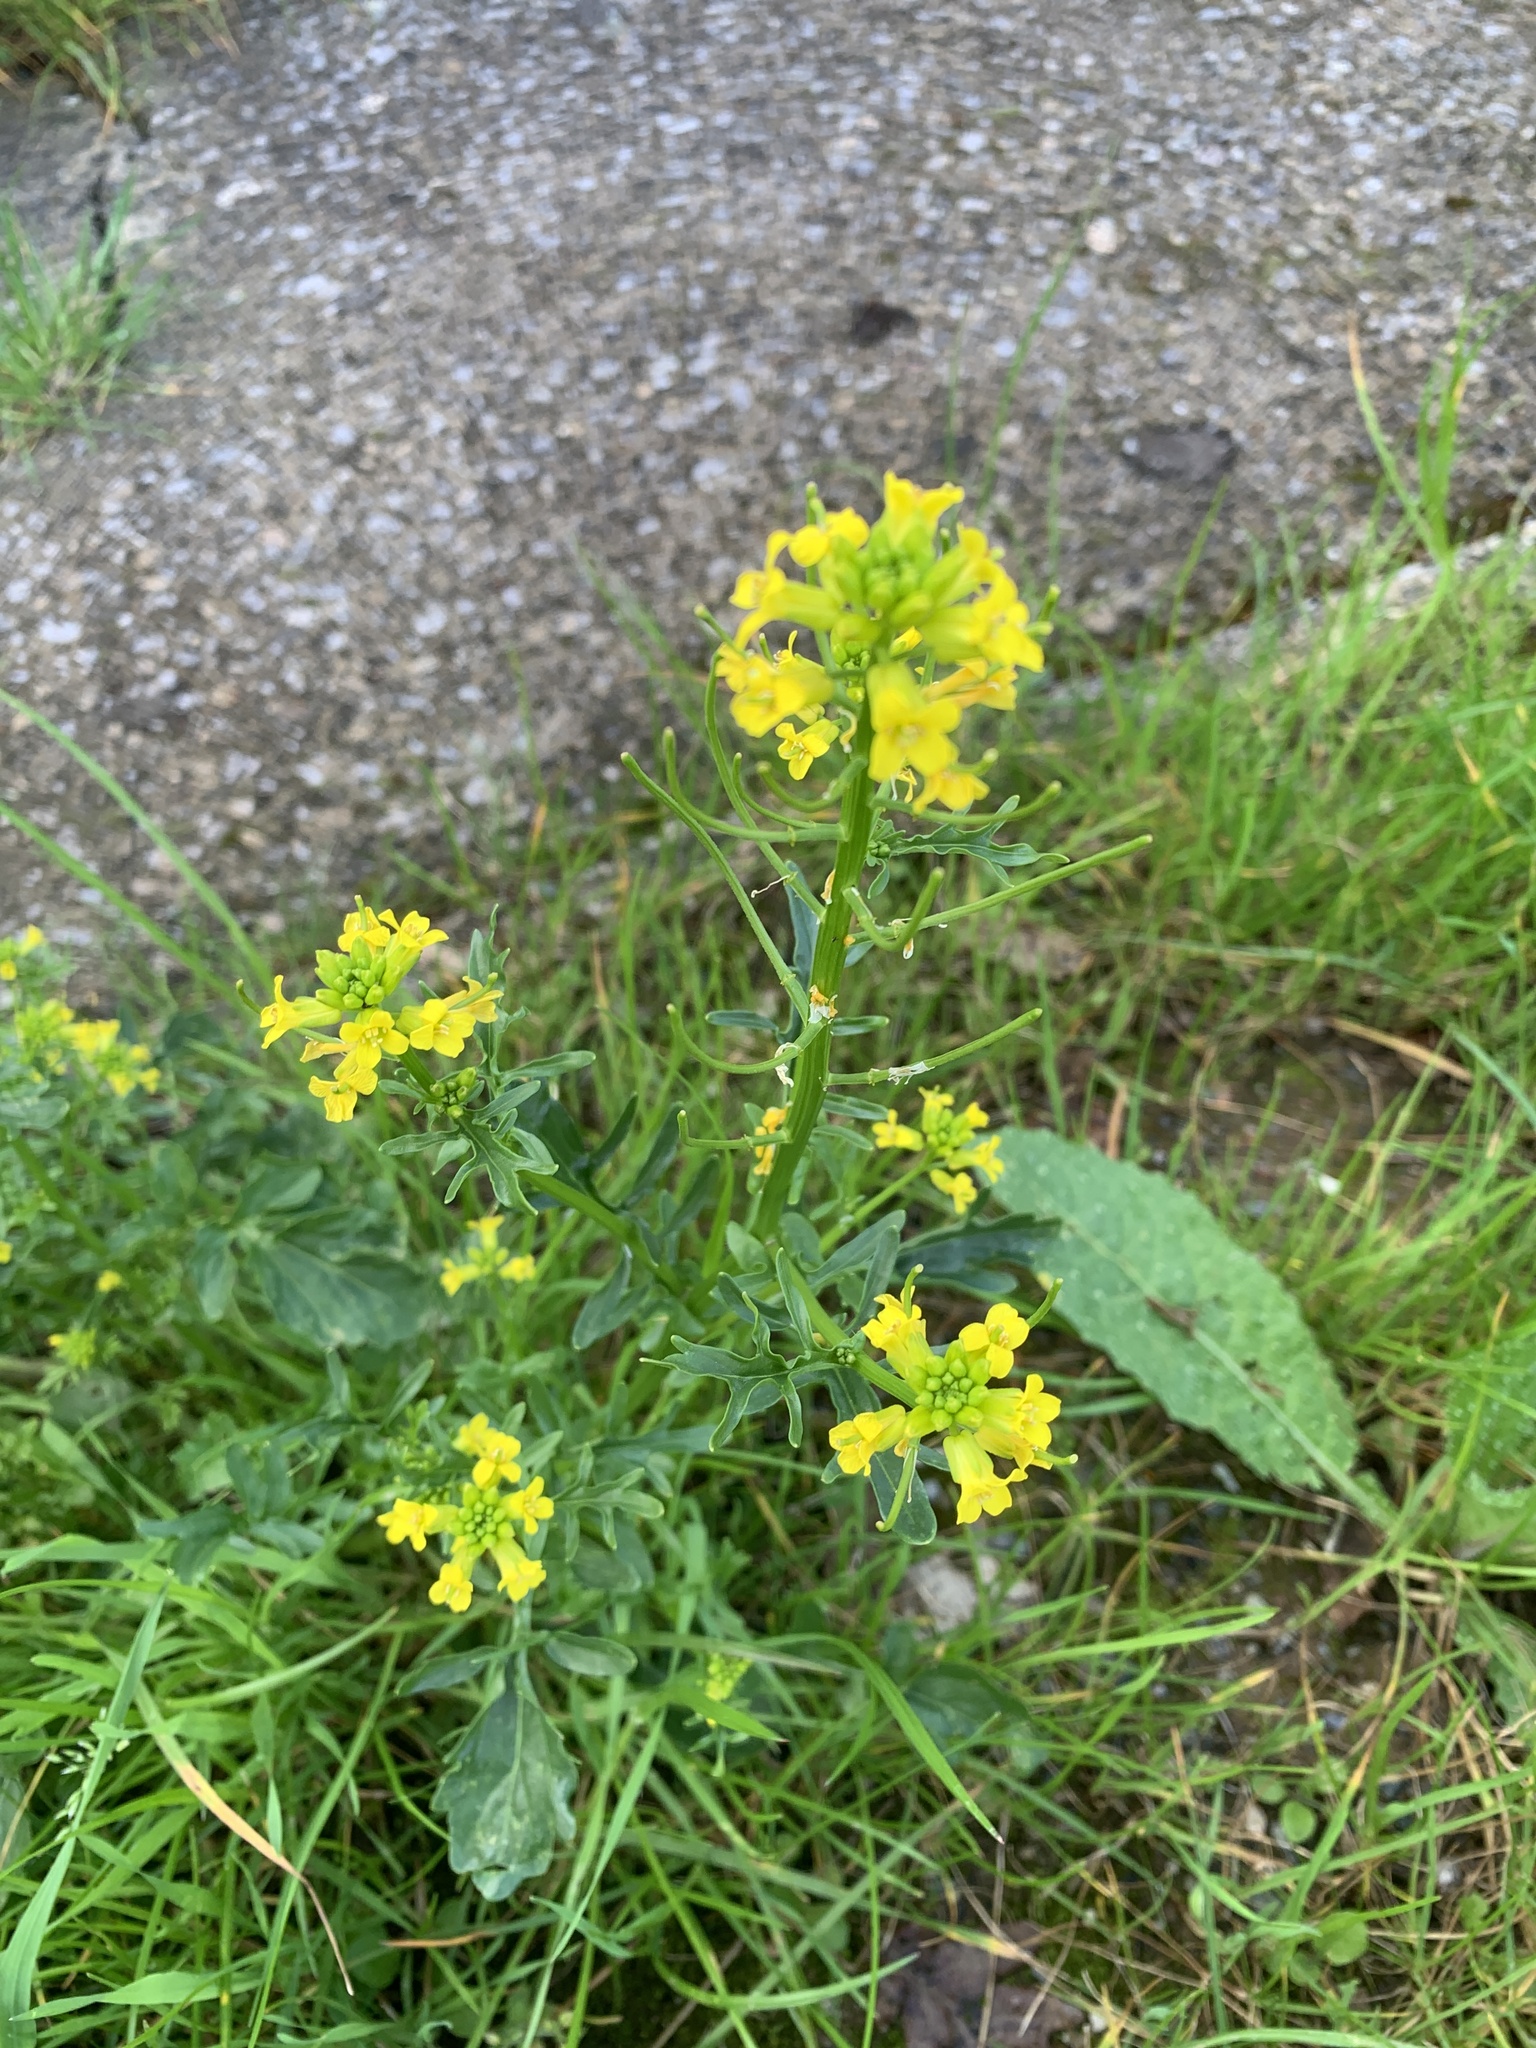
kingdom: Plantae
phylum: Tracheophyta
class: Magnoliopsida
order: Brassicales
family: Brassicaceae
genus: Barbarea
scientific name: Barbarea verna
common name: American cress
